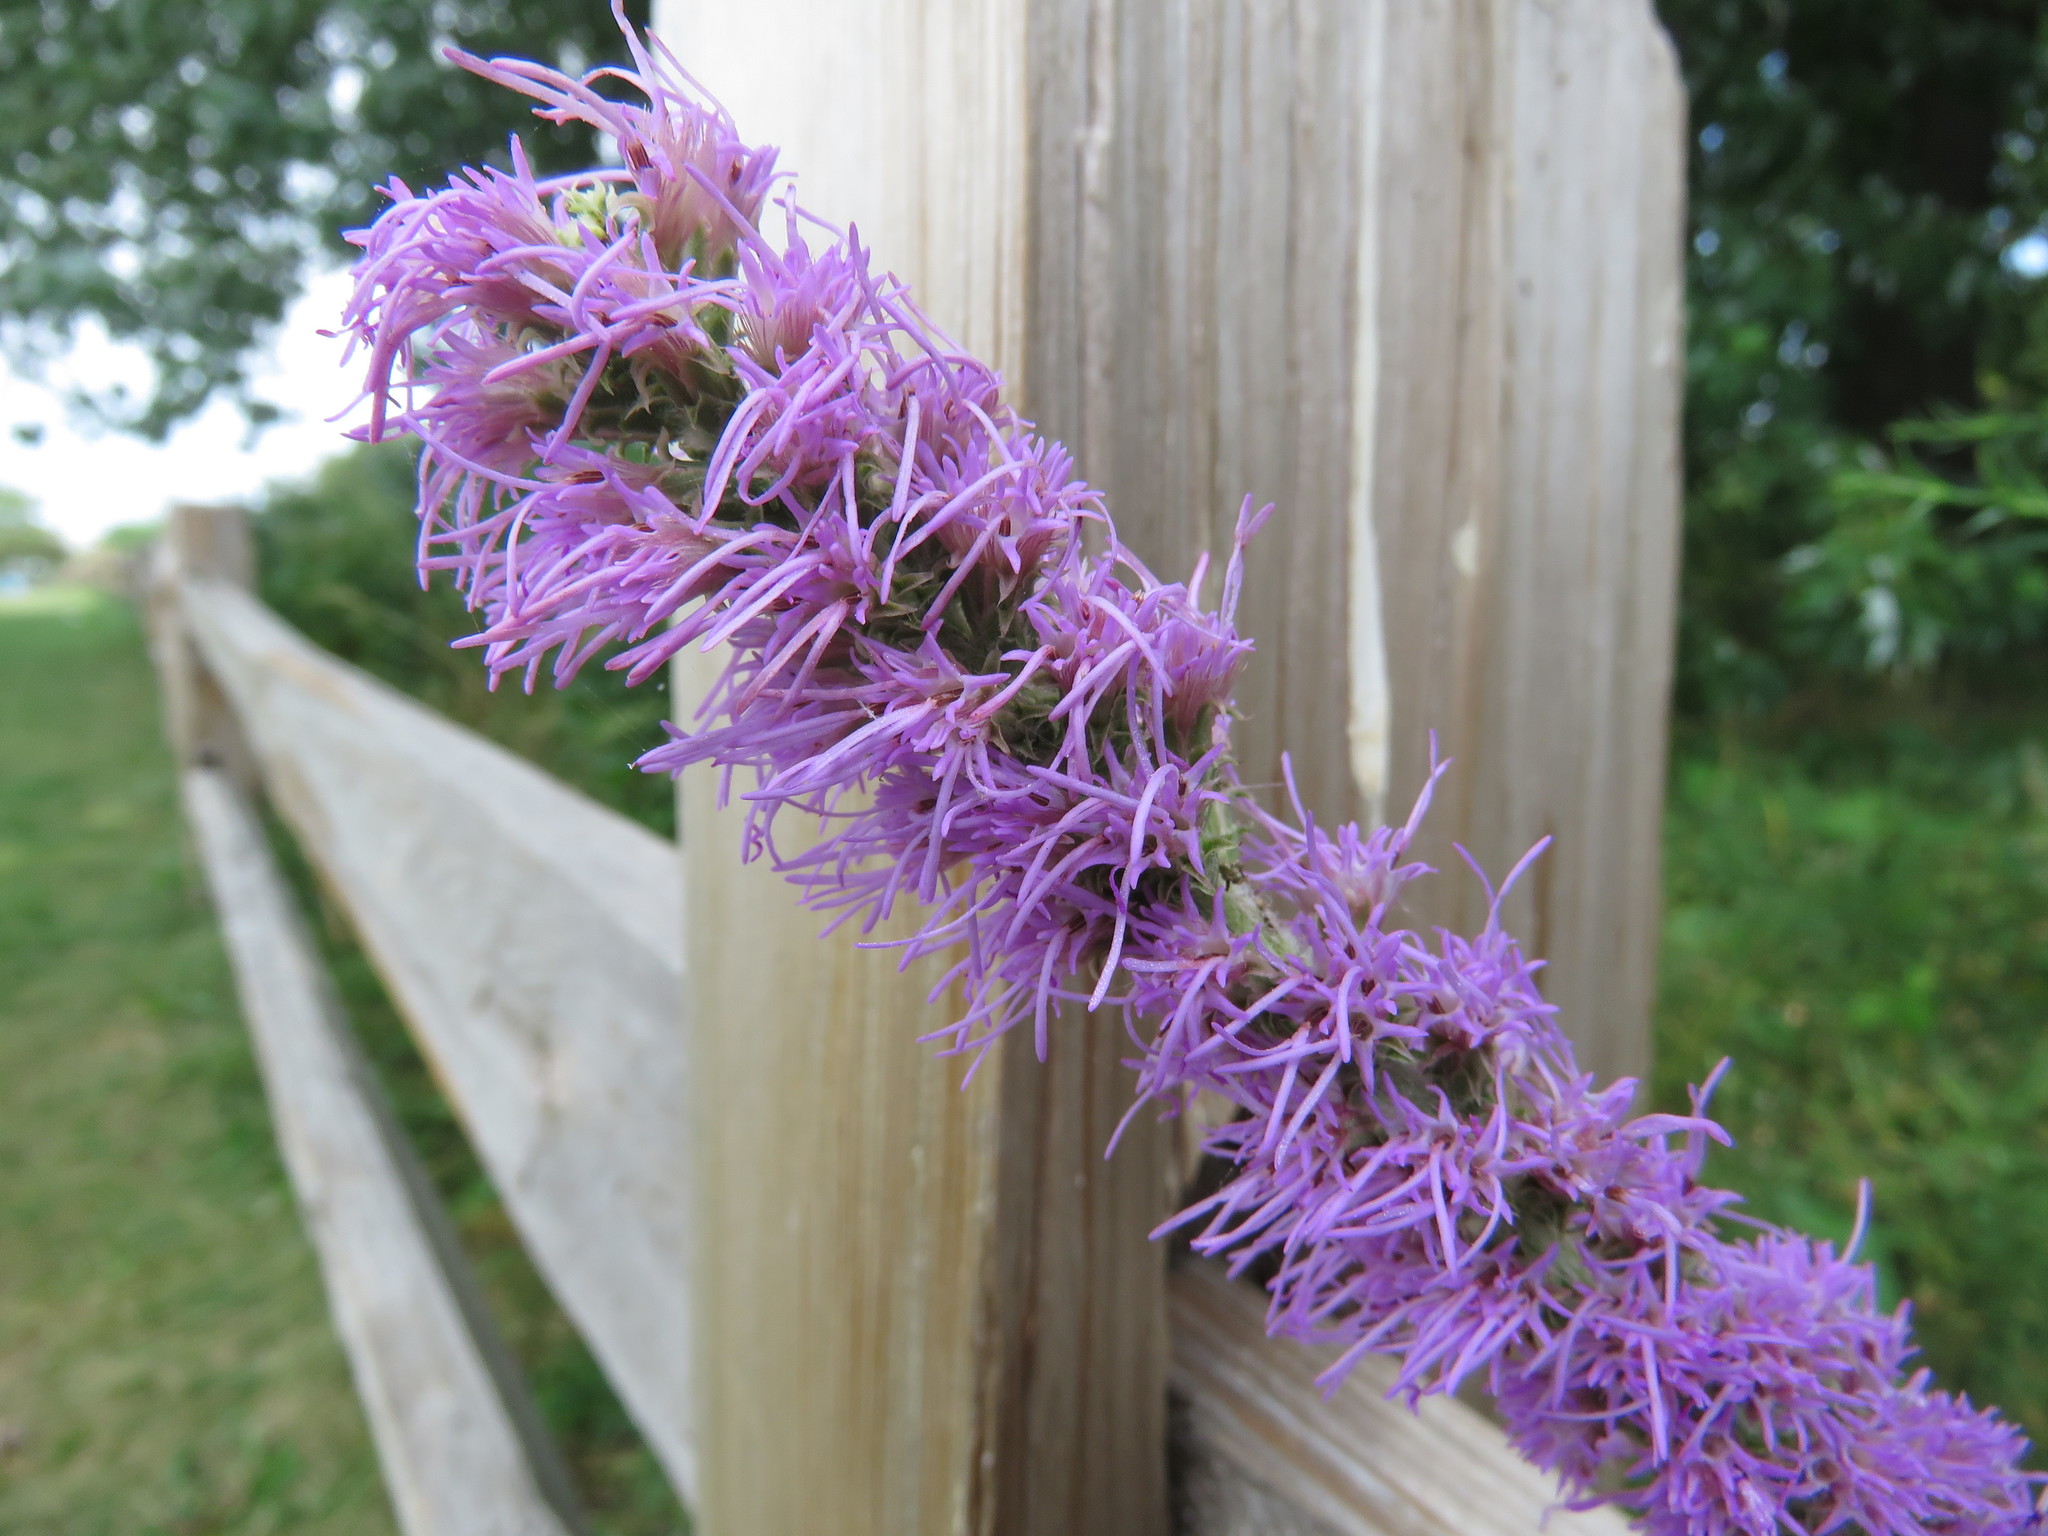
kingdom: Plantae
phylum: Tracheophyta
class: Magnoliopsida
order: Asterales
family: Asteraceae
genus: Liatris
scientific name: Liatris pycnostachya
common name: Cattail gayfeather
